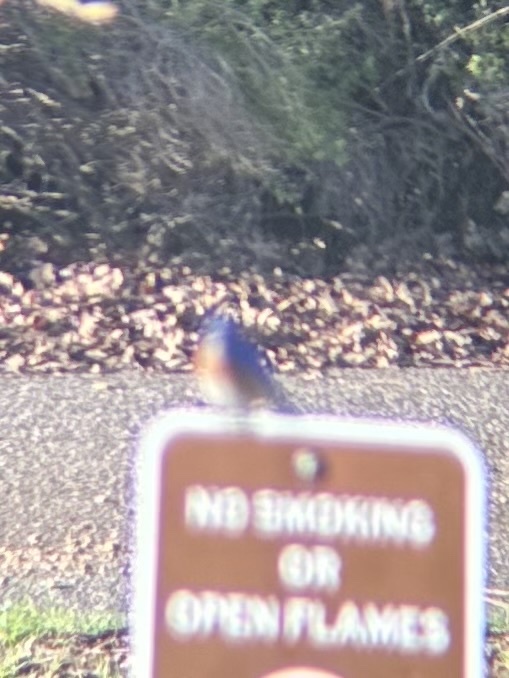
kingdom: Animalia
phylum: Chordata
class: Aves
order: Passeriformes
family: Turdidae
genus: Sialia
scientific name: Sialia mexicana
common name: Western bluebird
